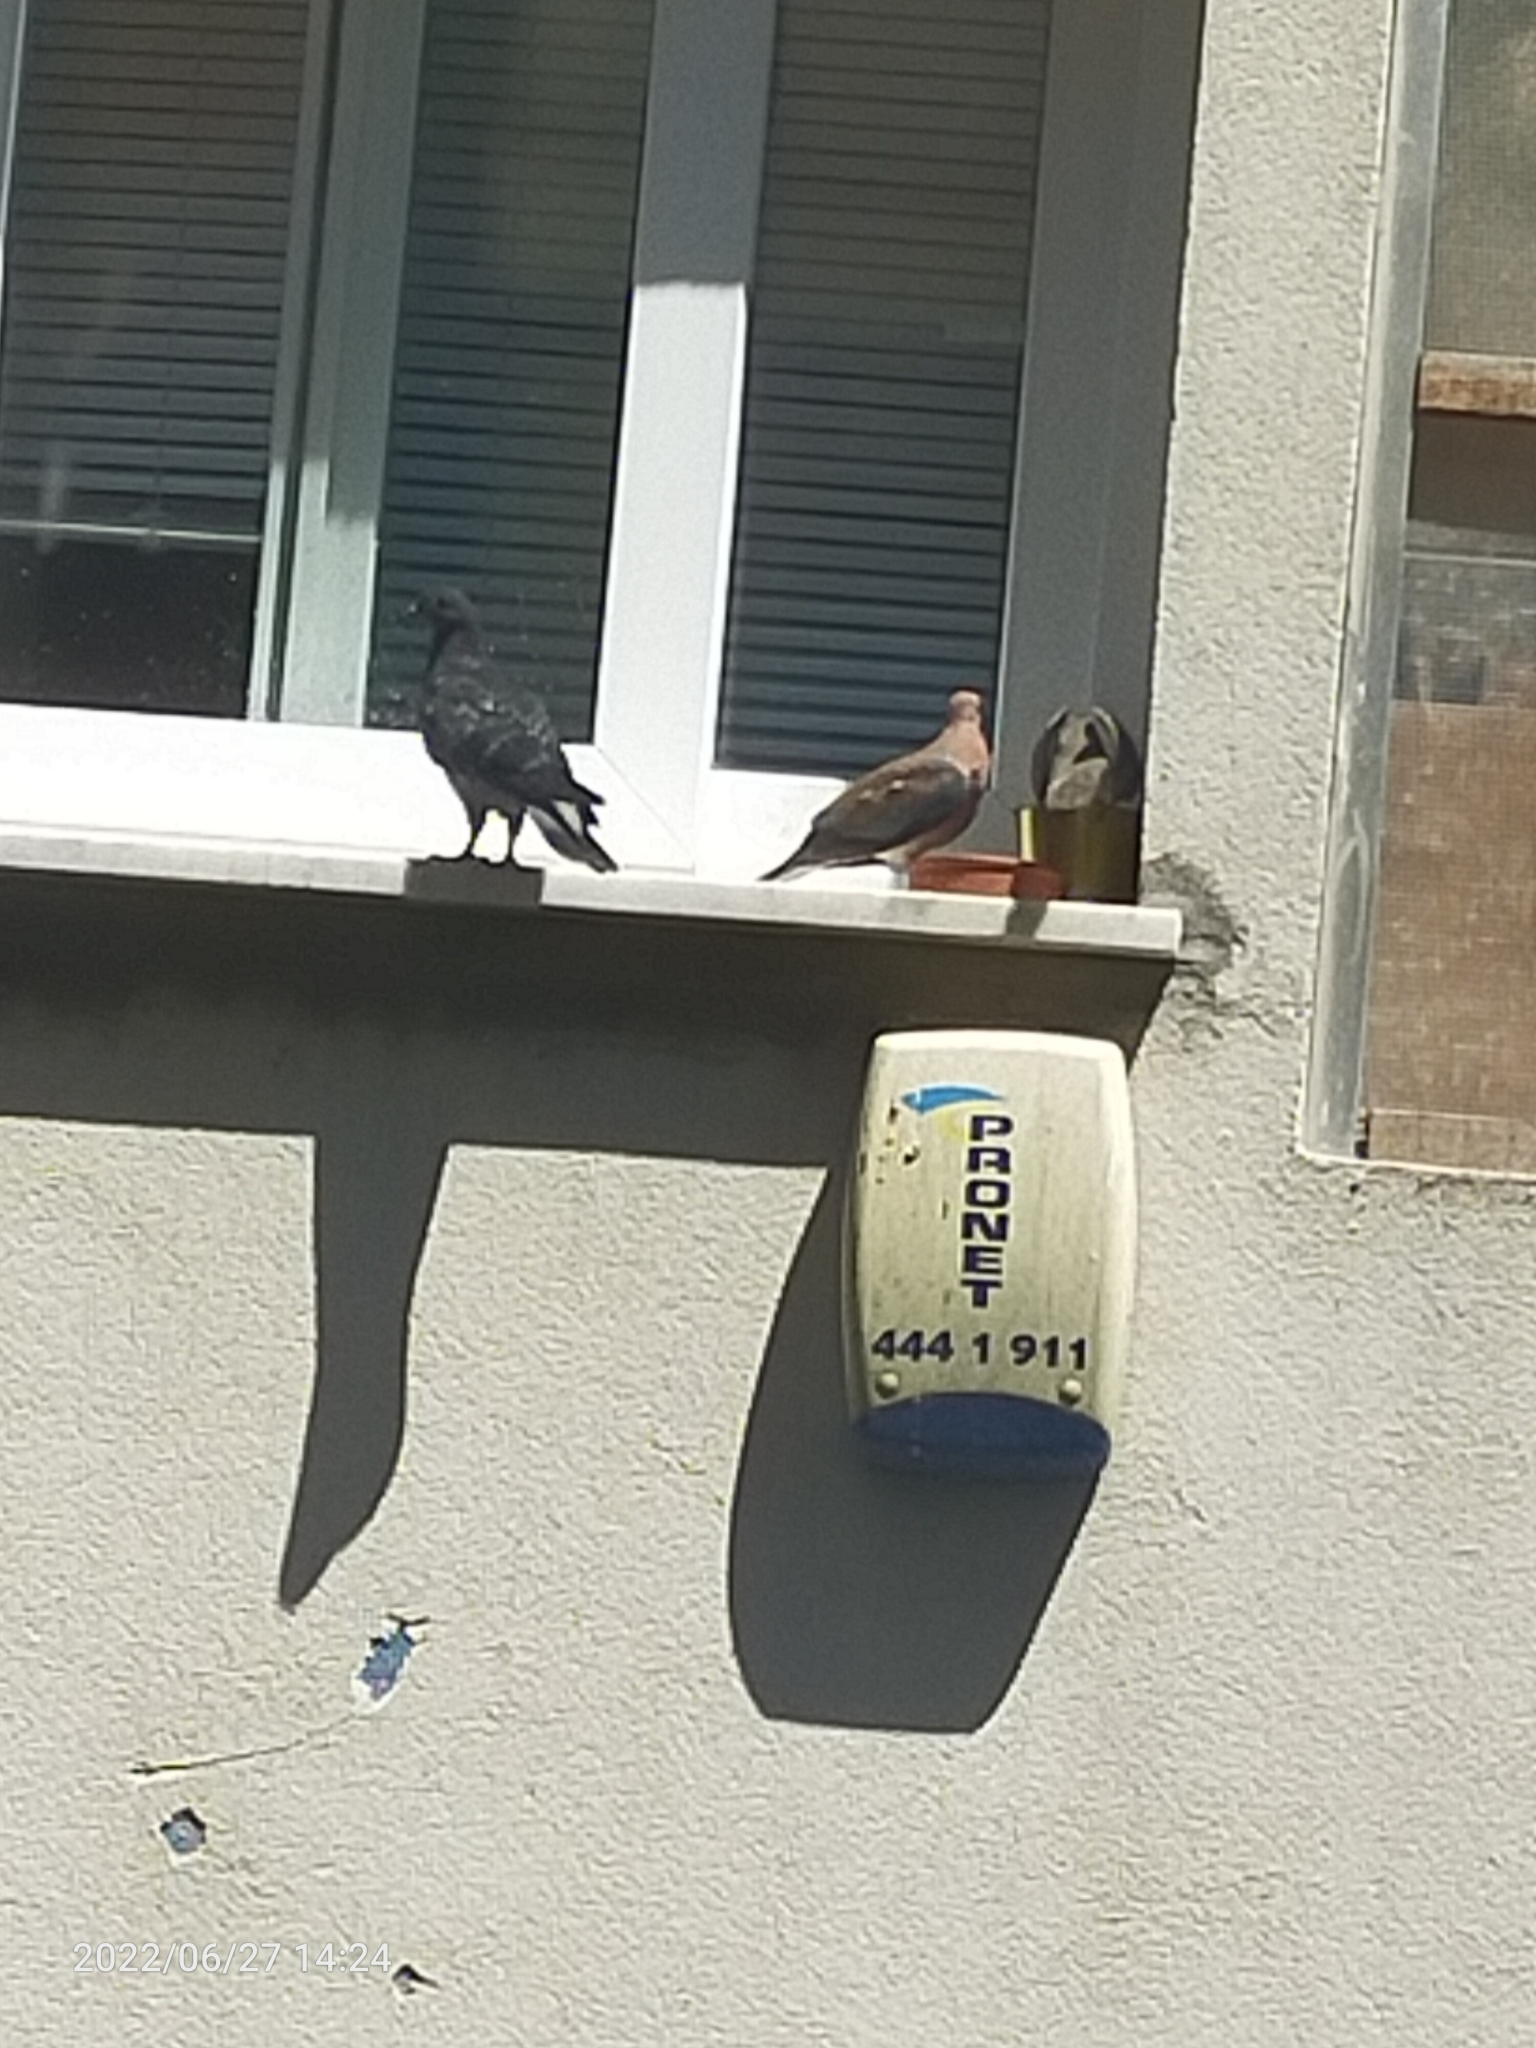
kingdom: Animalia
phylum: Chordata
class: Aves
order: Columbiformes
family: Columbidae
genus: Spilopelia
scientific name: Spilopelia senegalensis
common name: Laughing dove
